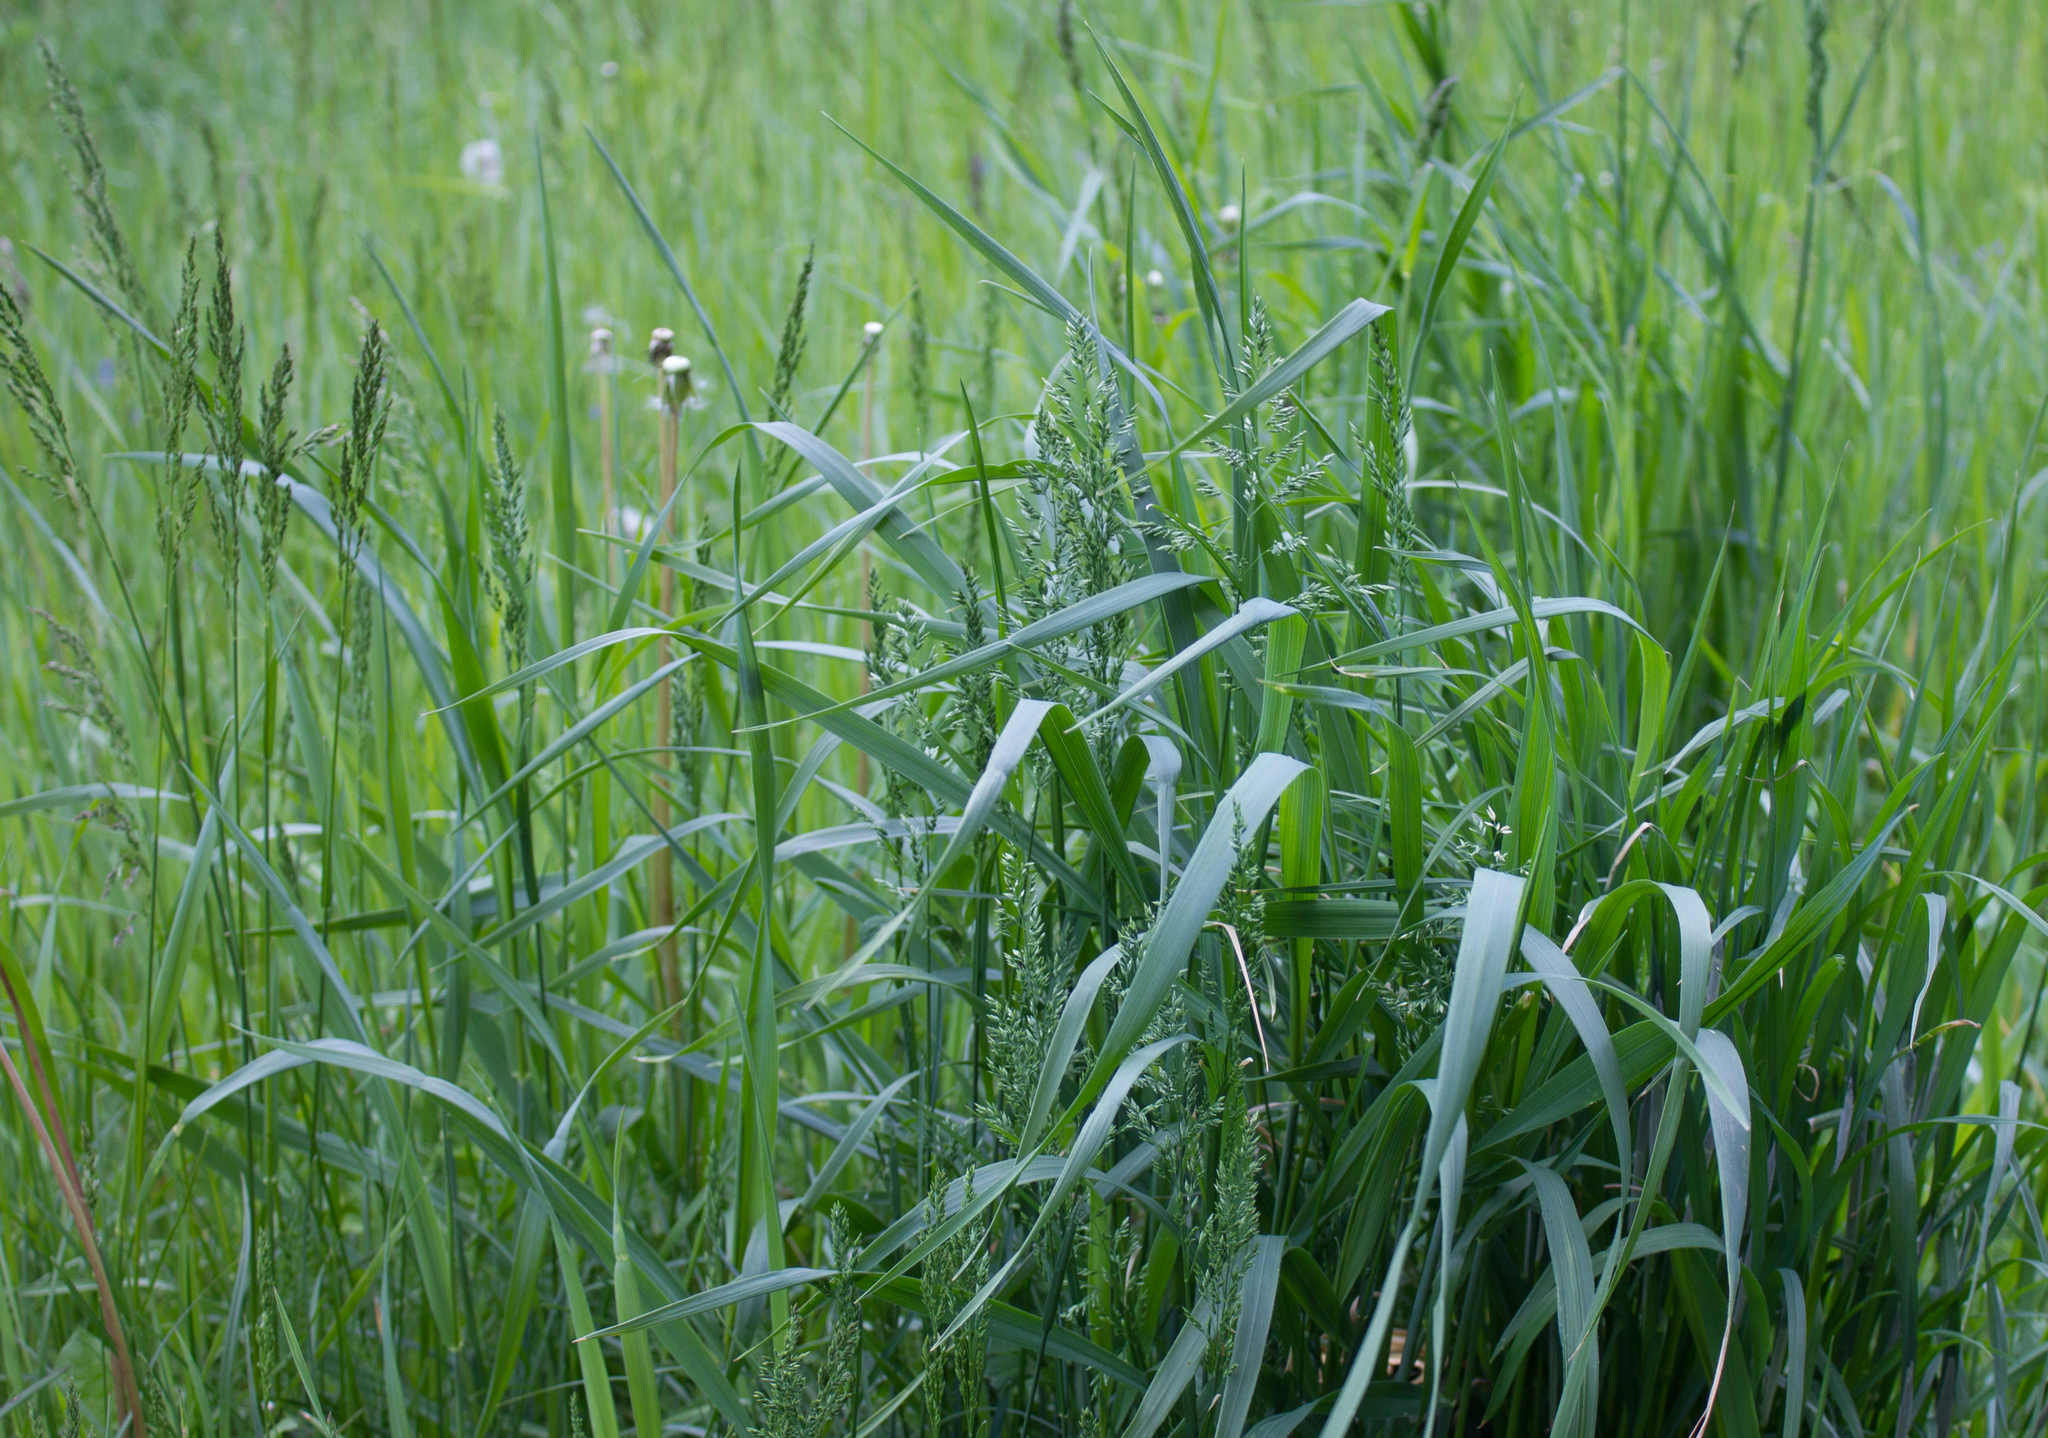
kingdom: Plantae
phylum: Tracheophyta
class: Liliopsida
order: Poales
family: Poaceae
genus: Poa
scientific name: Poa pratensis
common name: Kentucky bluegrass
